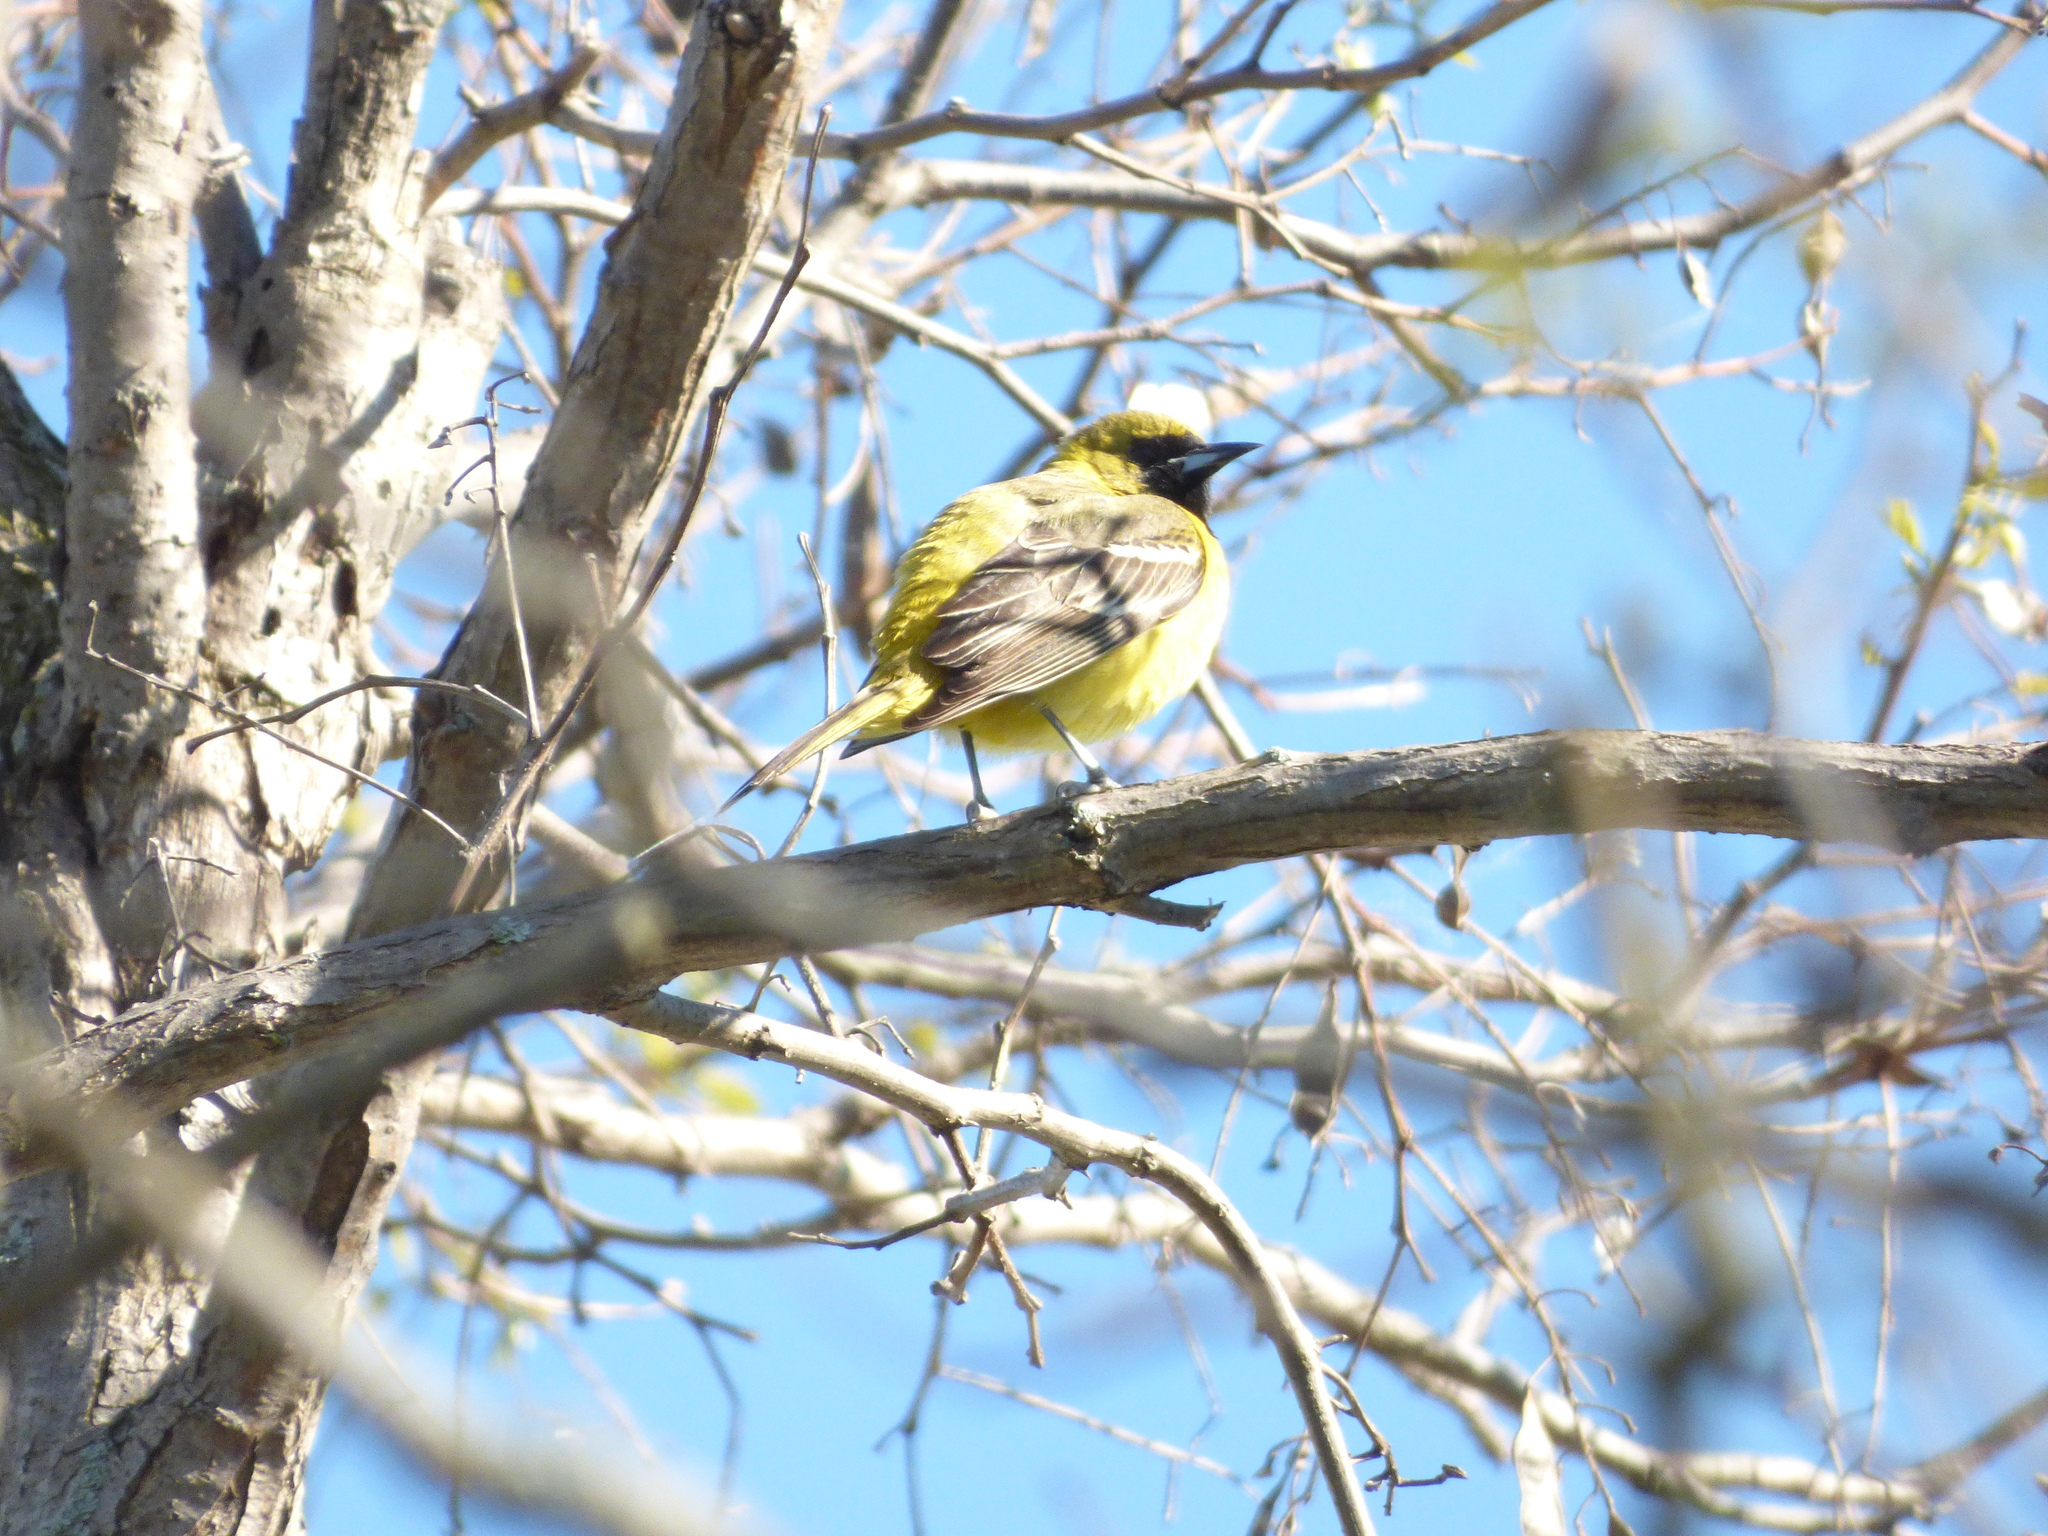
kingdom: Animalia
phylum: Chordata
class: Aves
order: Passeriformes
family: Icteridae
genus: Icterus
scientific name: Icterus spurius
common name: Orchard oriole
